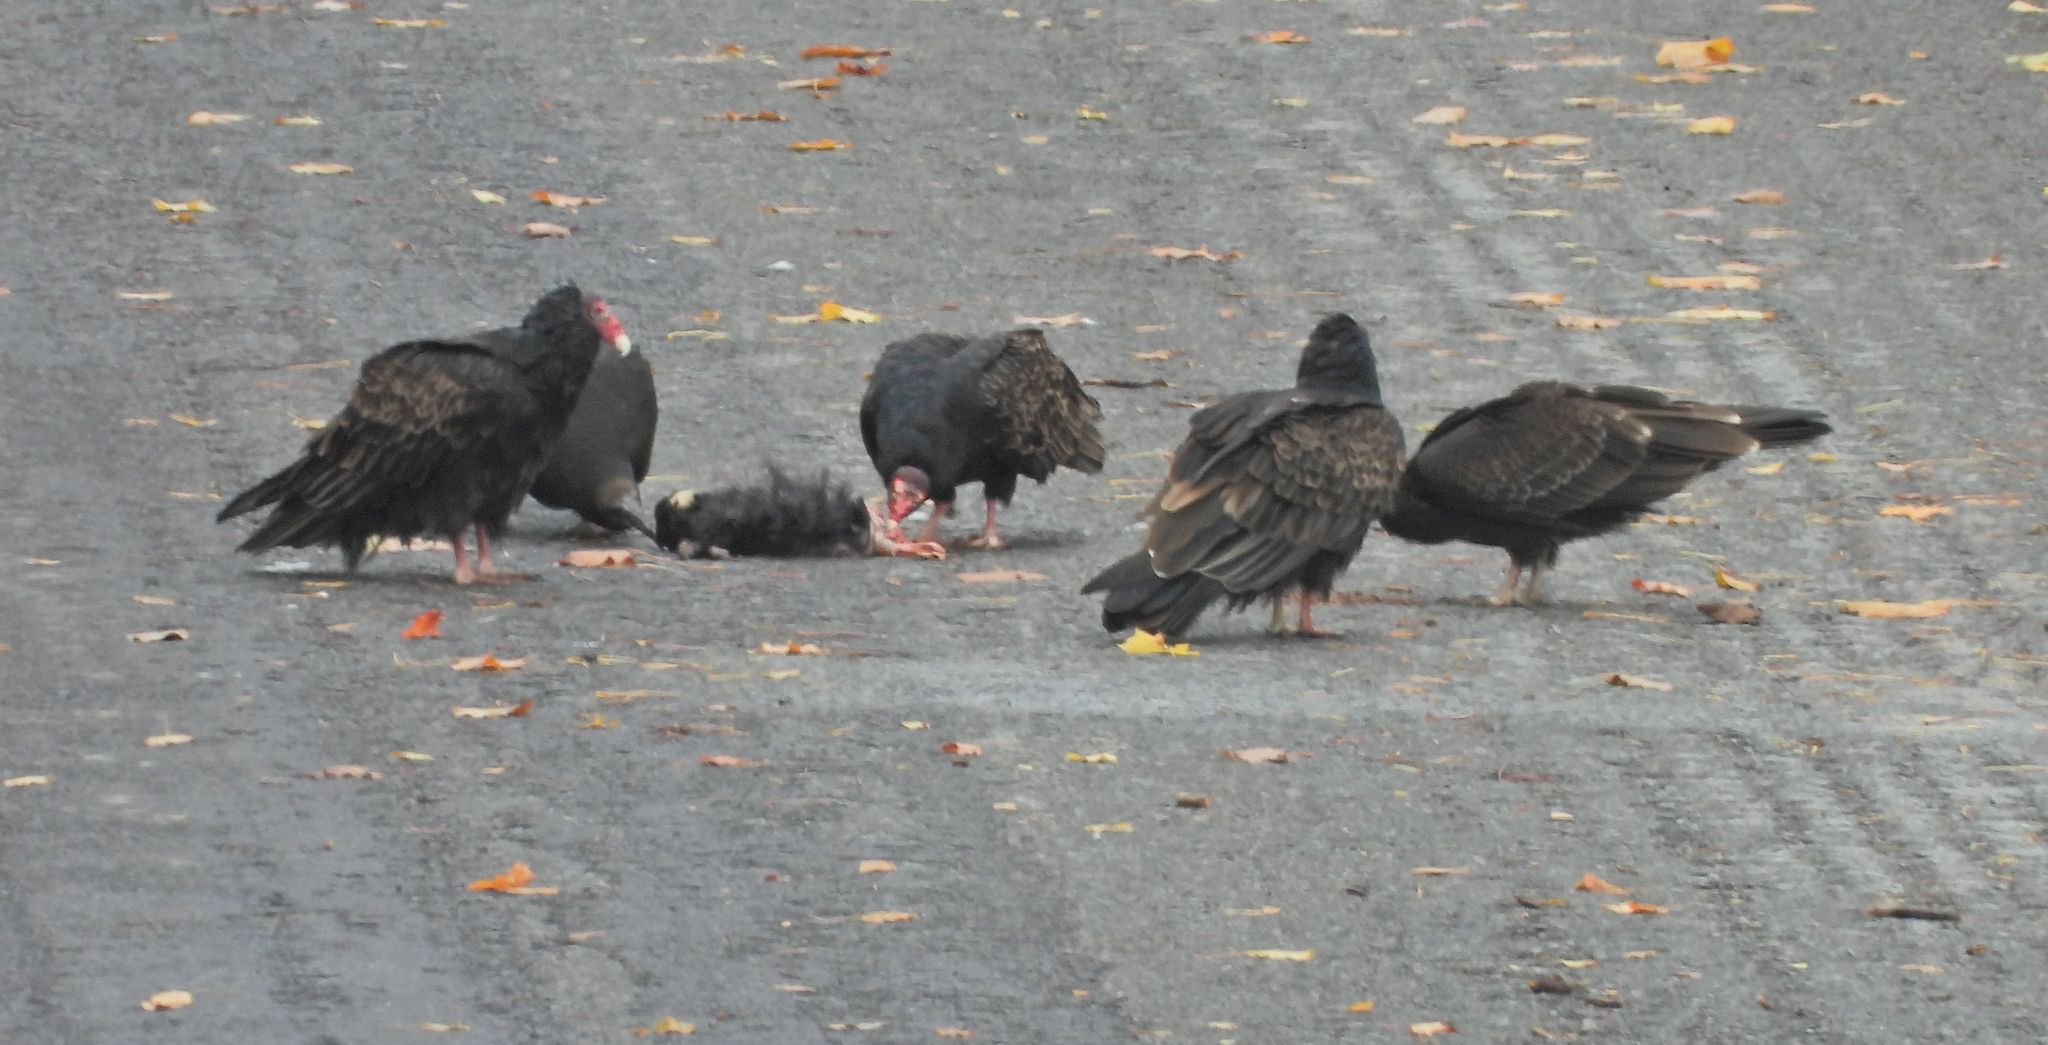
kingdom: Animalia
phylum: Chordata
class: Aves
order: Accipitriformes
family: Cathartidae
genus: Cathartes
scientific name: Cathartes aura
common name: Turkey vulture
